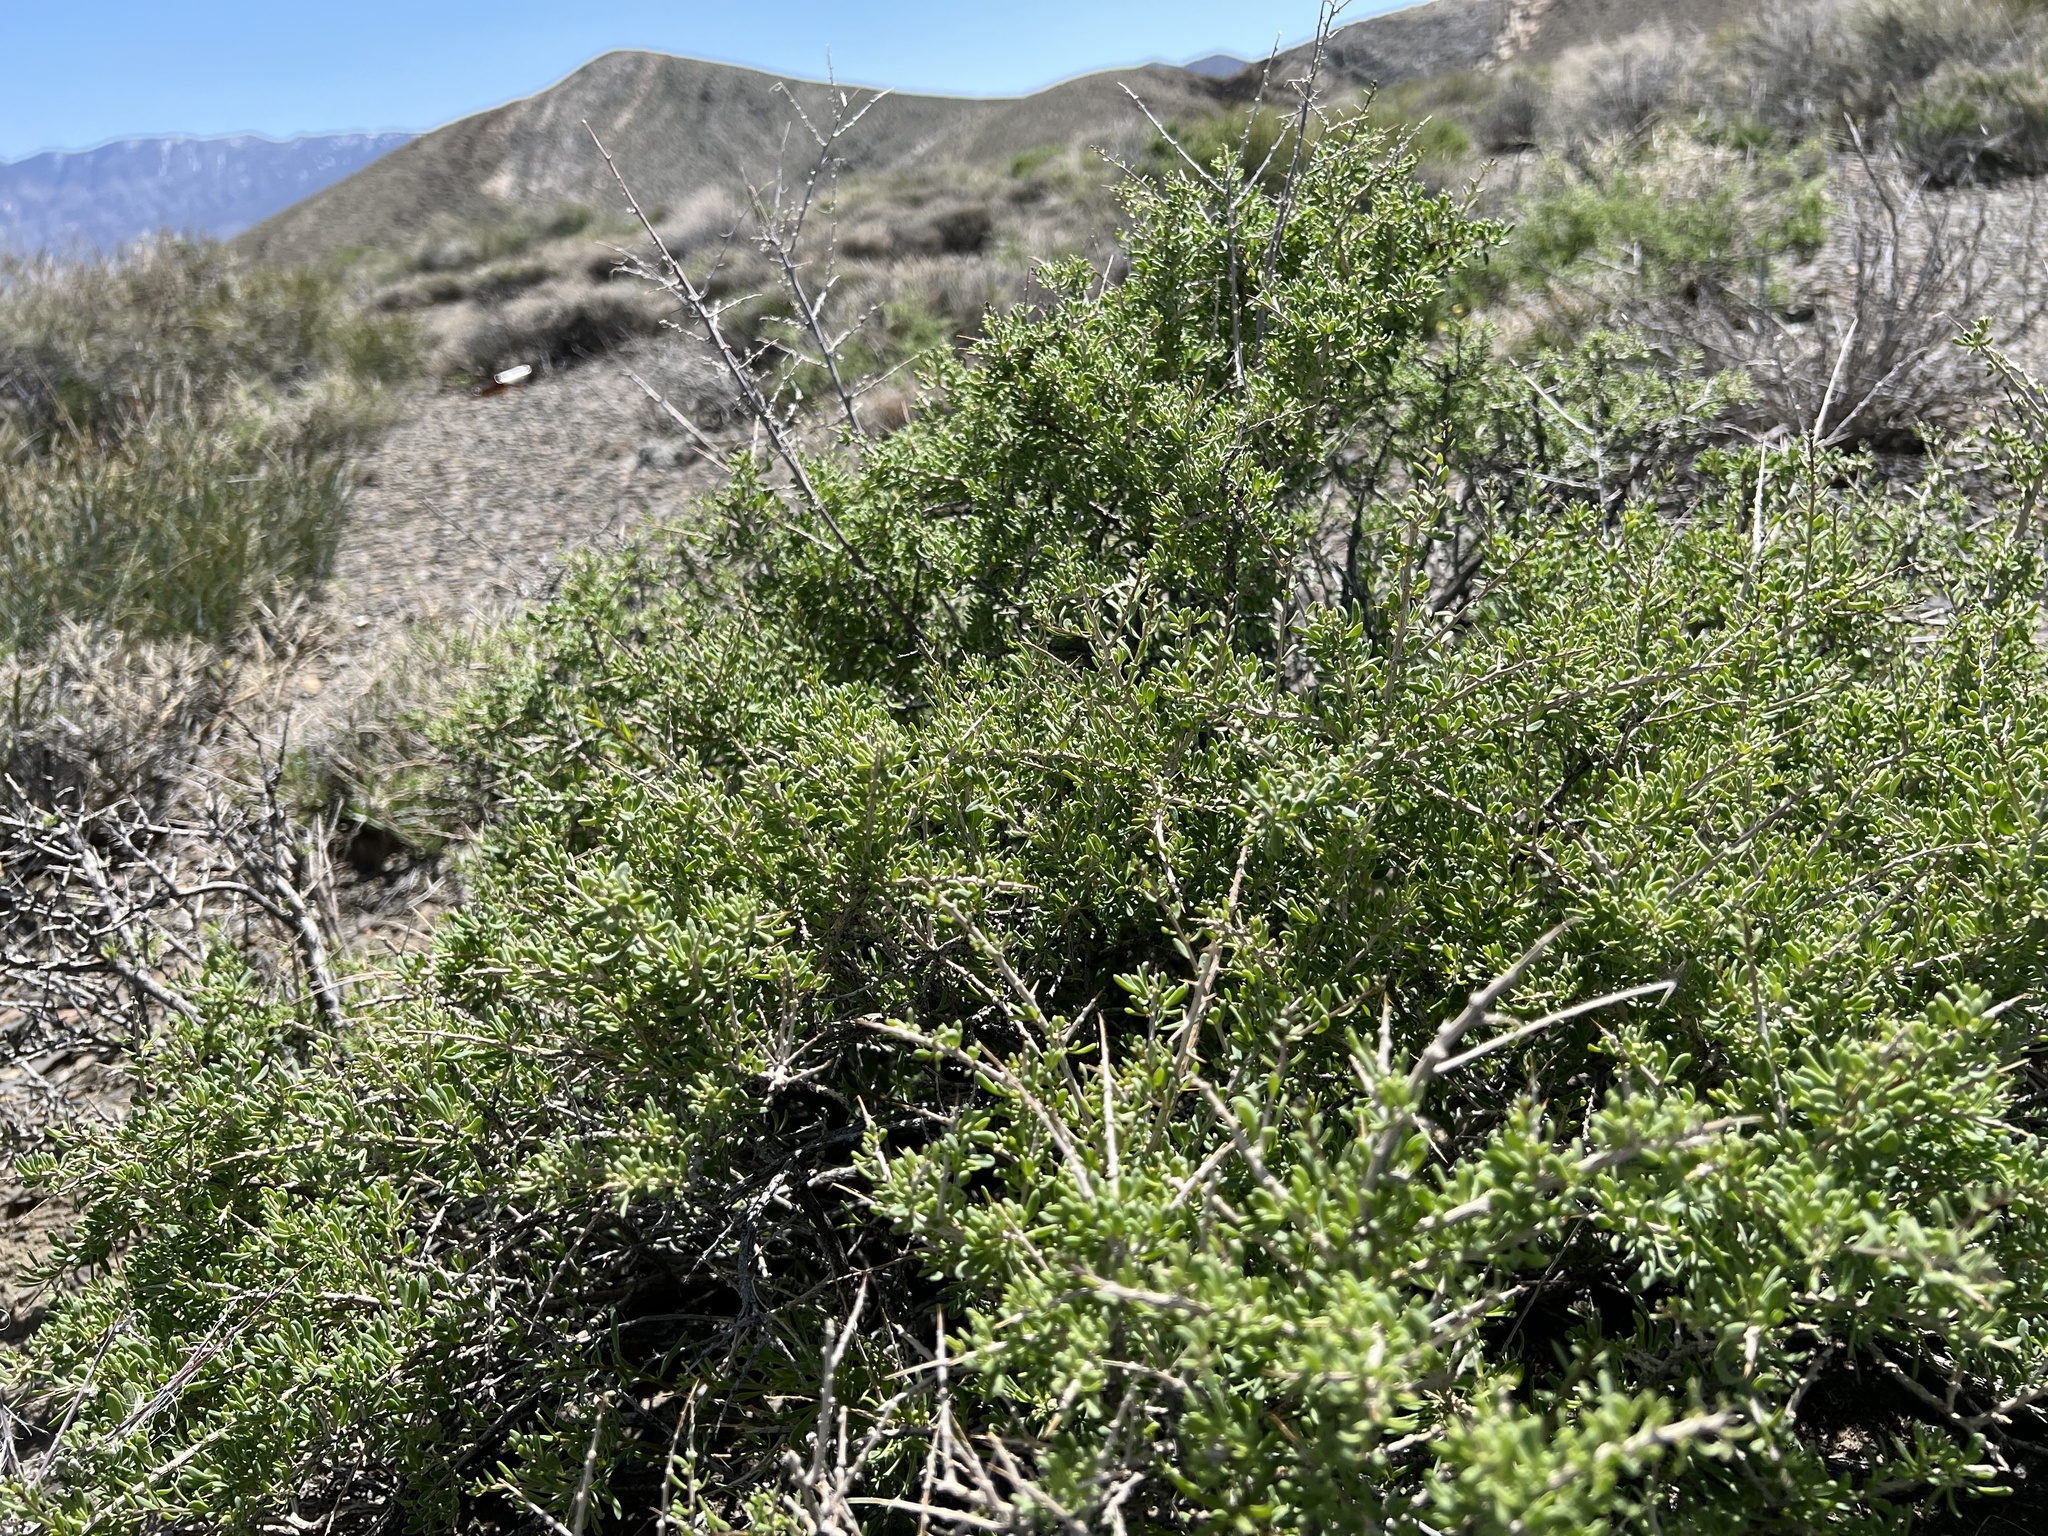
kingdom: Plantae
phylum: Tracheophyta
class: Magnoliopsida
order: Solanales
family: Solanaceae
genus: Lycium
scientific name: Lycium andersonii
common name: Water-jacket
